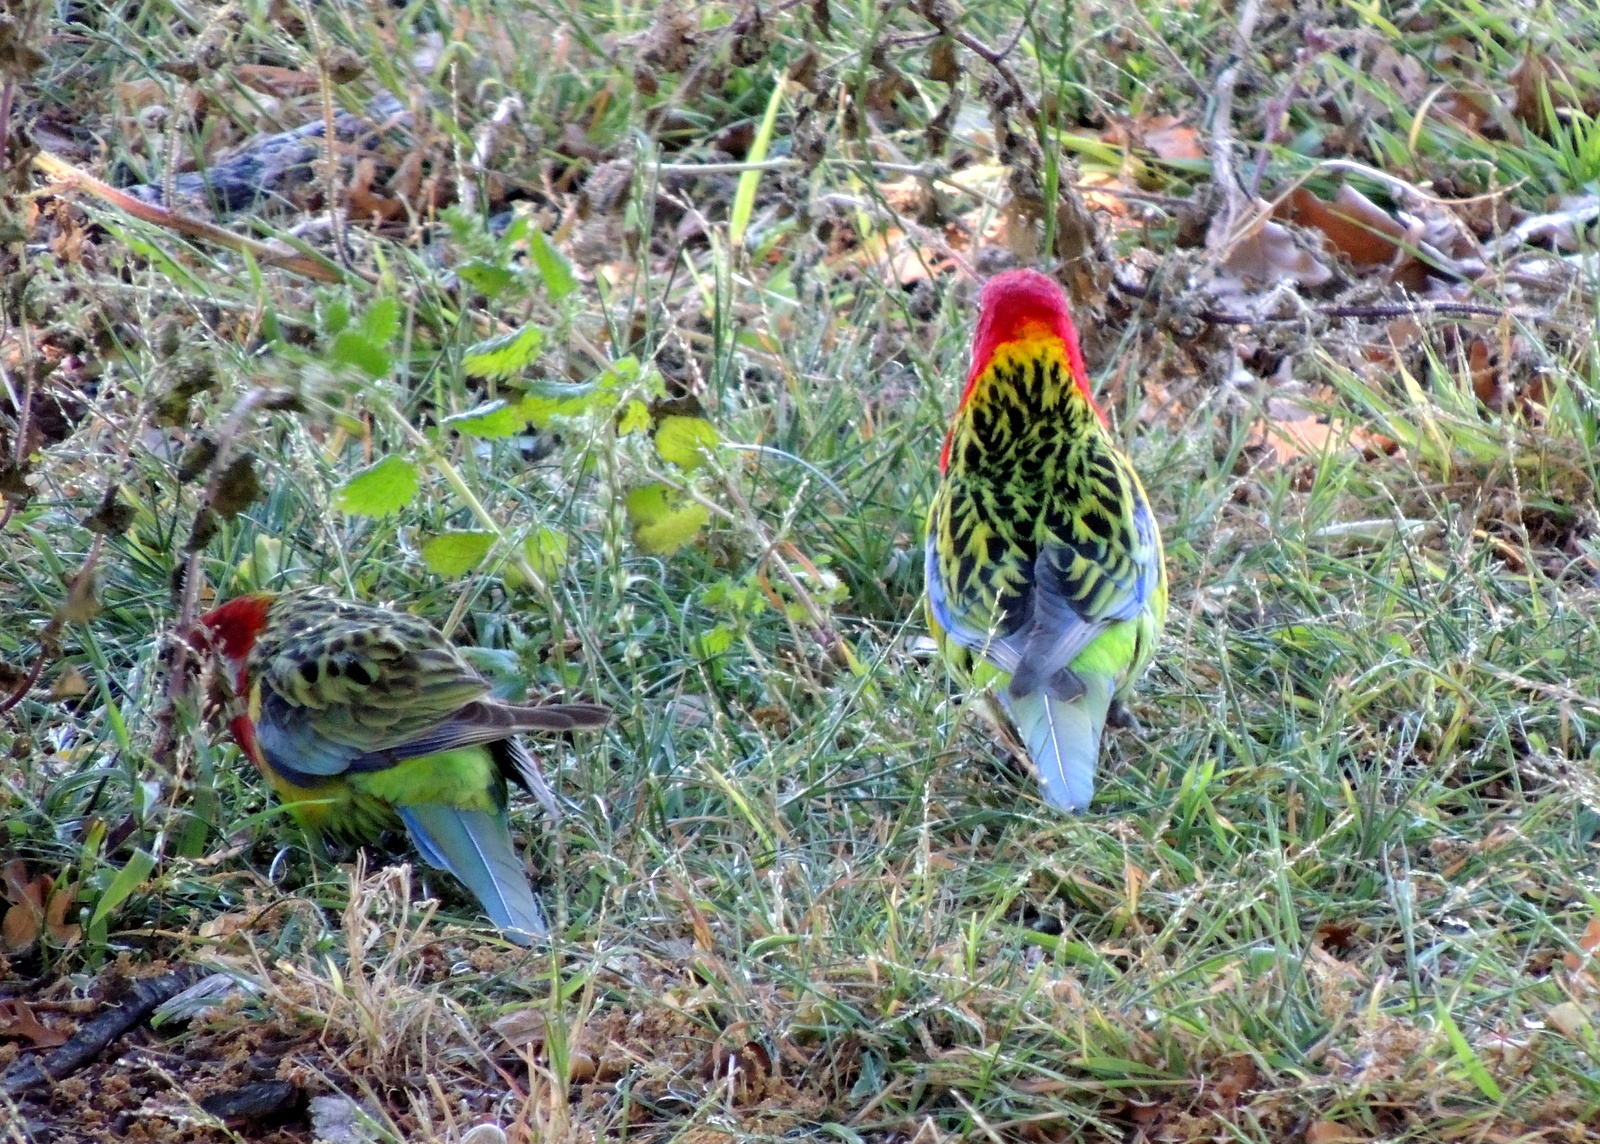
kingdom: Animalia
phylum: Chordata
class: Aves
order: Psittaciformes
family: Psittacidae
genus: Platycercus
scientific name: Platycercus eximius
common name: Eastern rosella
